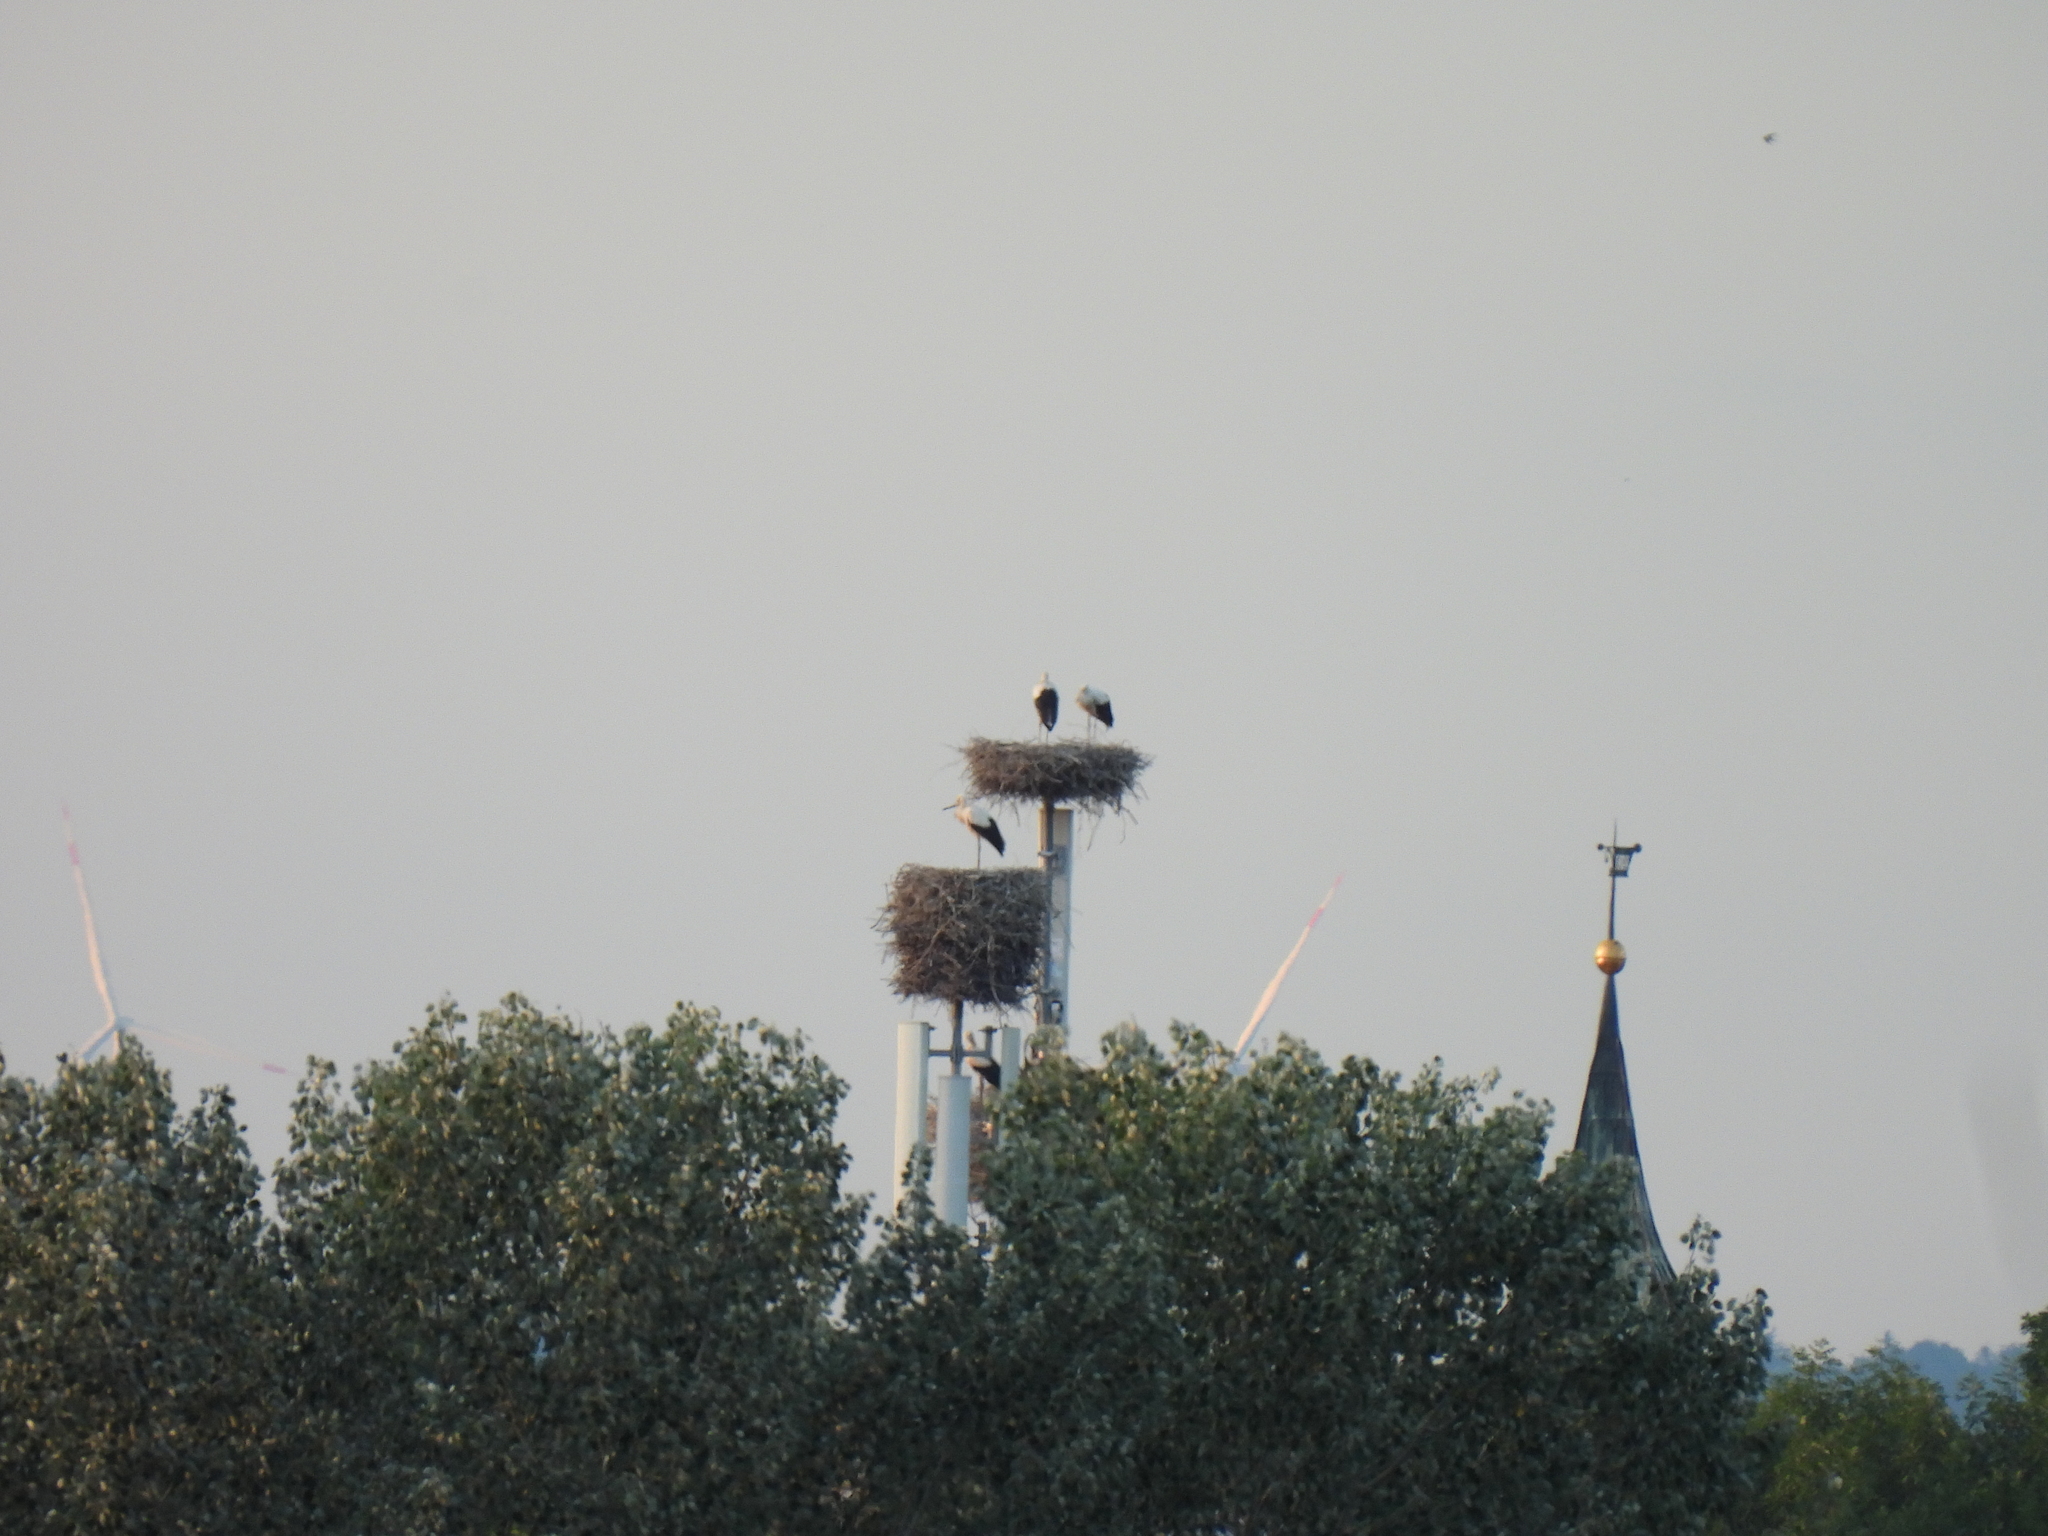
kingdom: Animalia
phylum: Chordata
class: Aves
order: Ciconiiformes
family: Ciconiidae
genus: Ciconia
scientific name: Ciconia ciconia
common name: White stork
